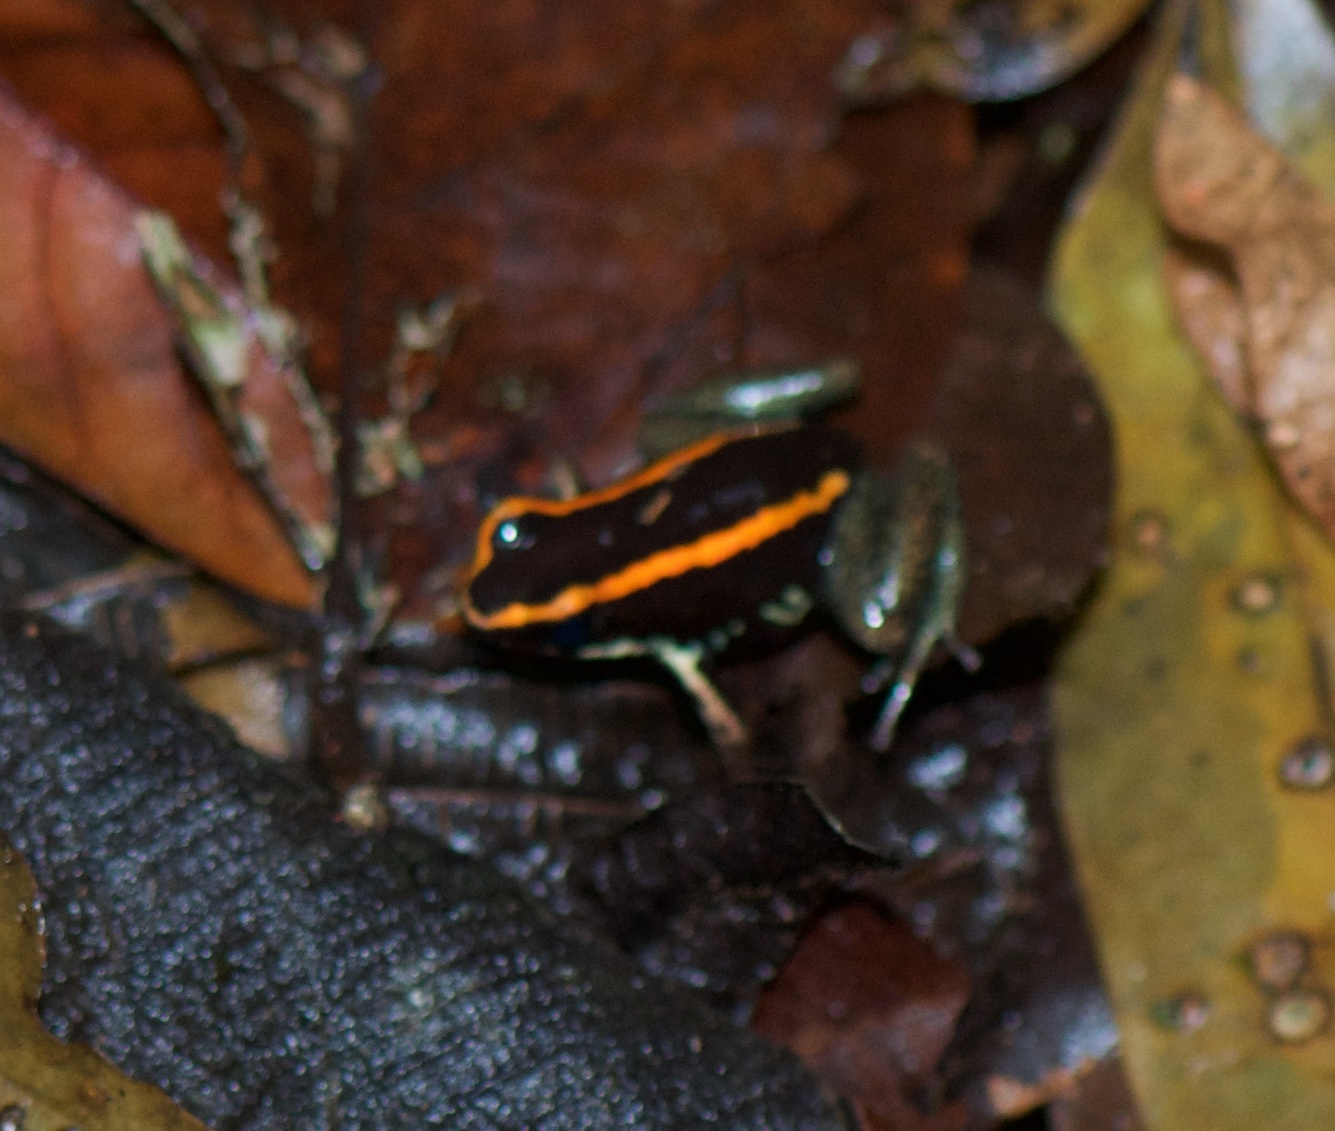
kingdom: Animalia
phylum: Chordata
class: Amphibia
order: Anura
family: Dendrobatidae
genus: Phyllobates
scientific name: Phyllobates vittatus
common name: Golfodulcean poison frog
